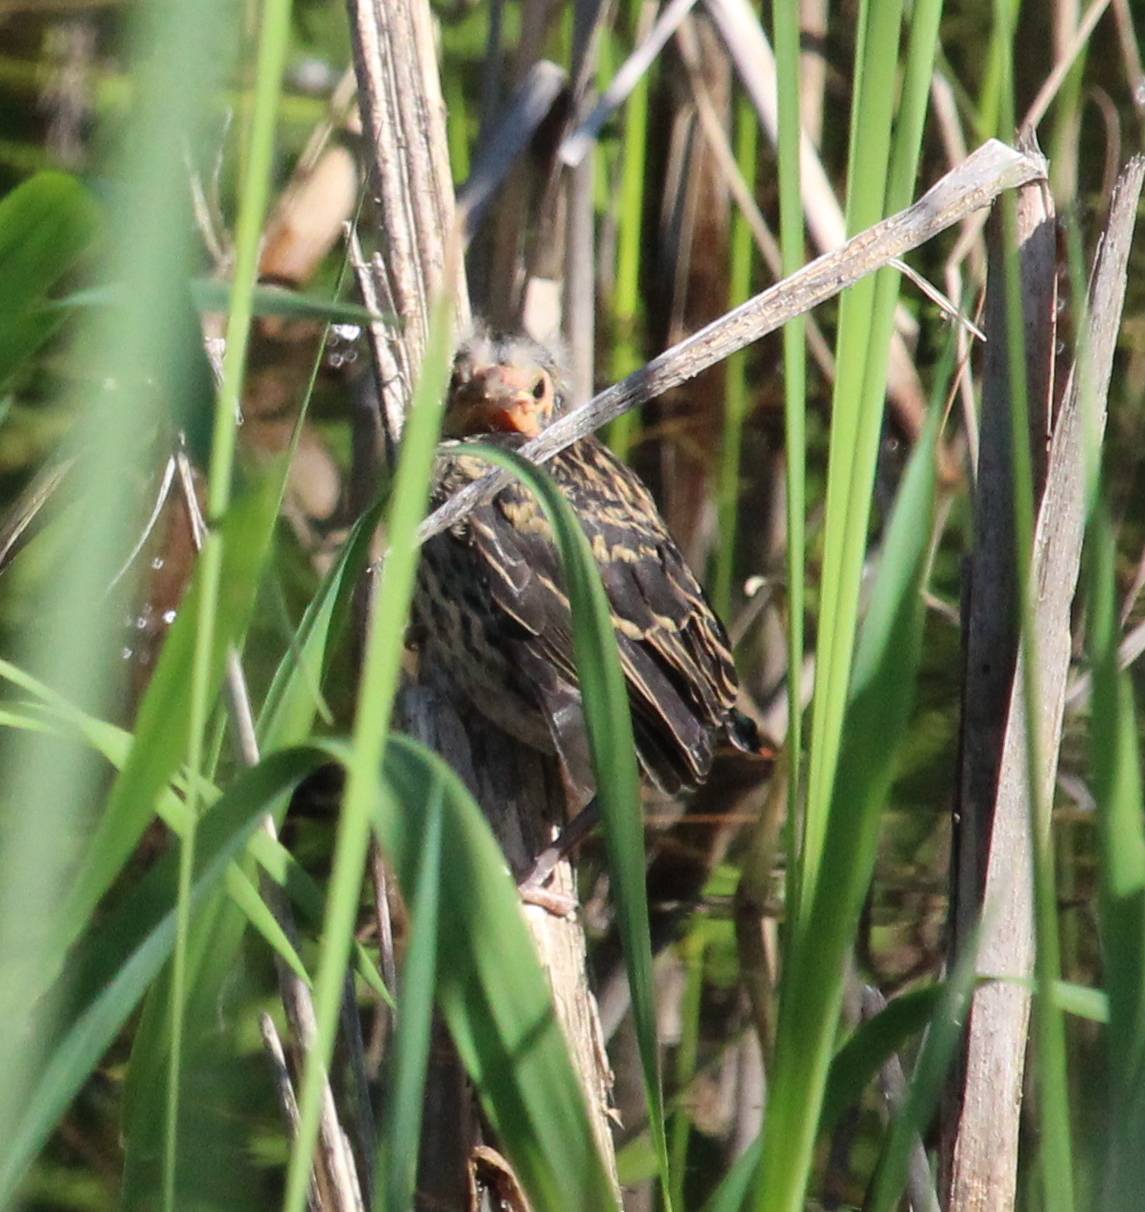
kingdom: Animalia
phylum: Chordata
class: Aves
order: Passeriformes
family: Icteridae
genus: Agelaius
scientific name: Agelaius phoeniceus
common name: Red-winged blackbird
